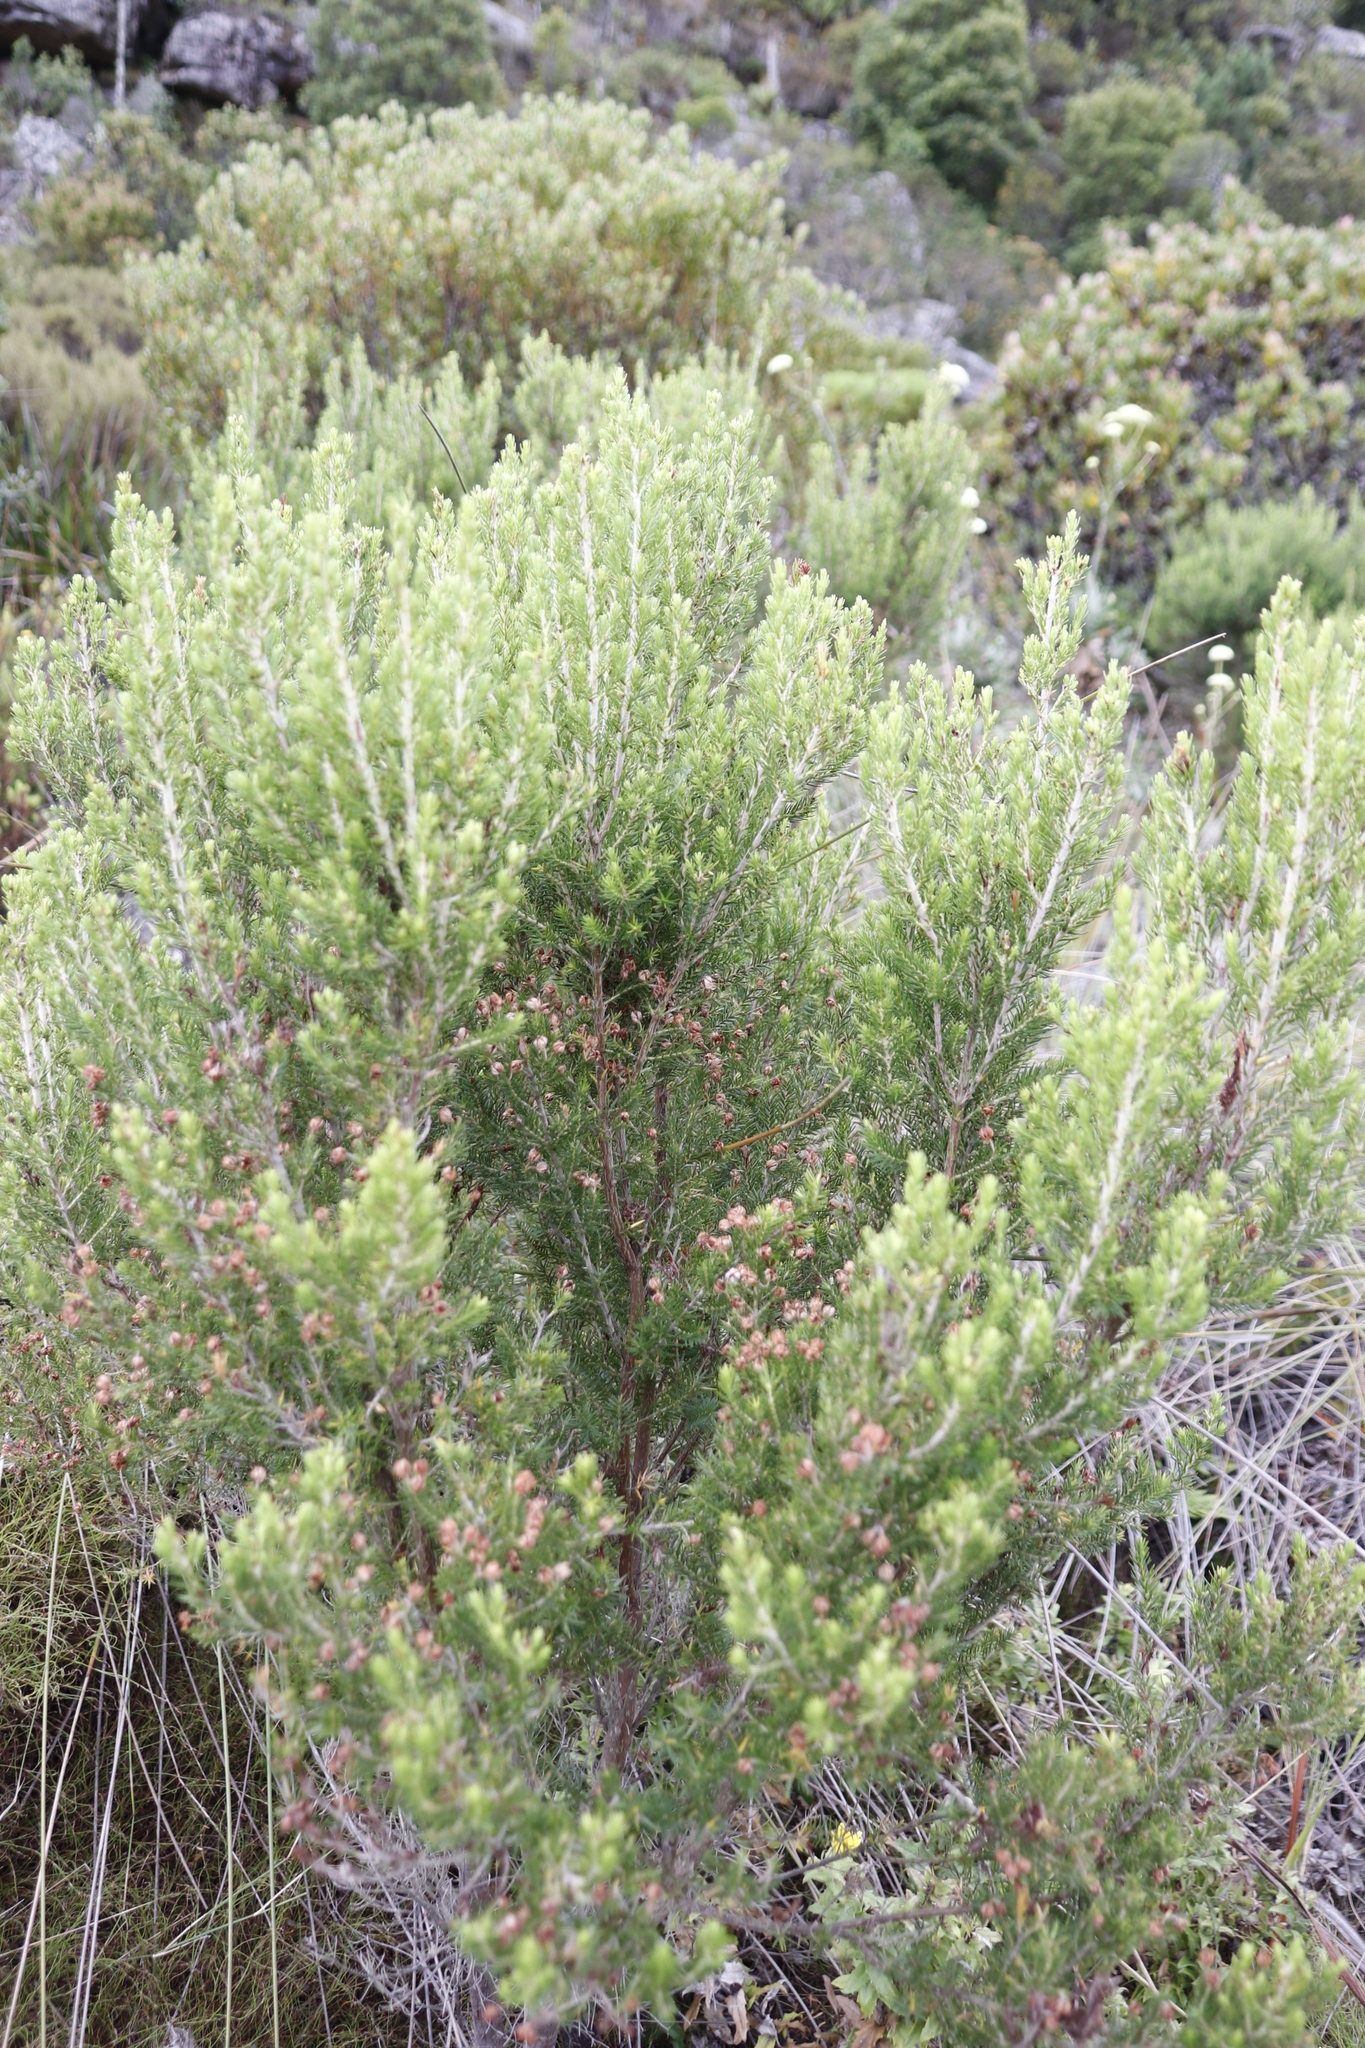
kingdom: Plantae
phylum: Tracheophyta
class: Magnoliopsida
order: Ericales
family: Ericaceae
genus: Erica
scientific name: Erica triflora
